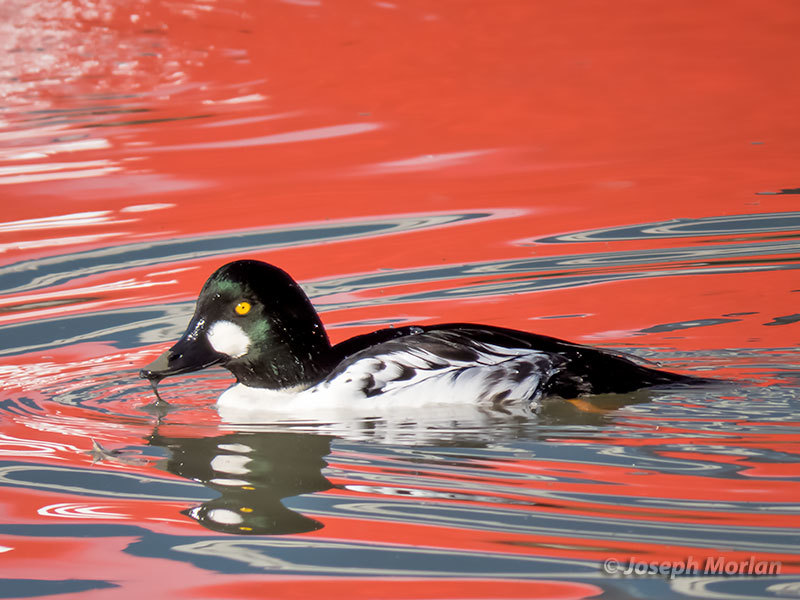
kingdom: Animalia
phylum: Chordata
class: Aves
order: Anseriformes
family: Anatidae
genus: Bucephala
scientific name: Bucephala clangula
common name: Common goldeneye
